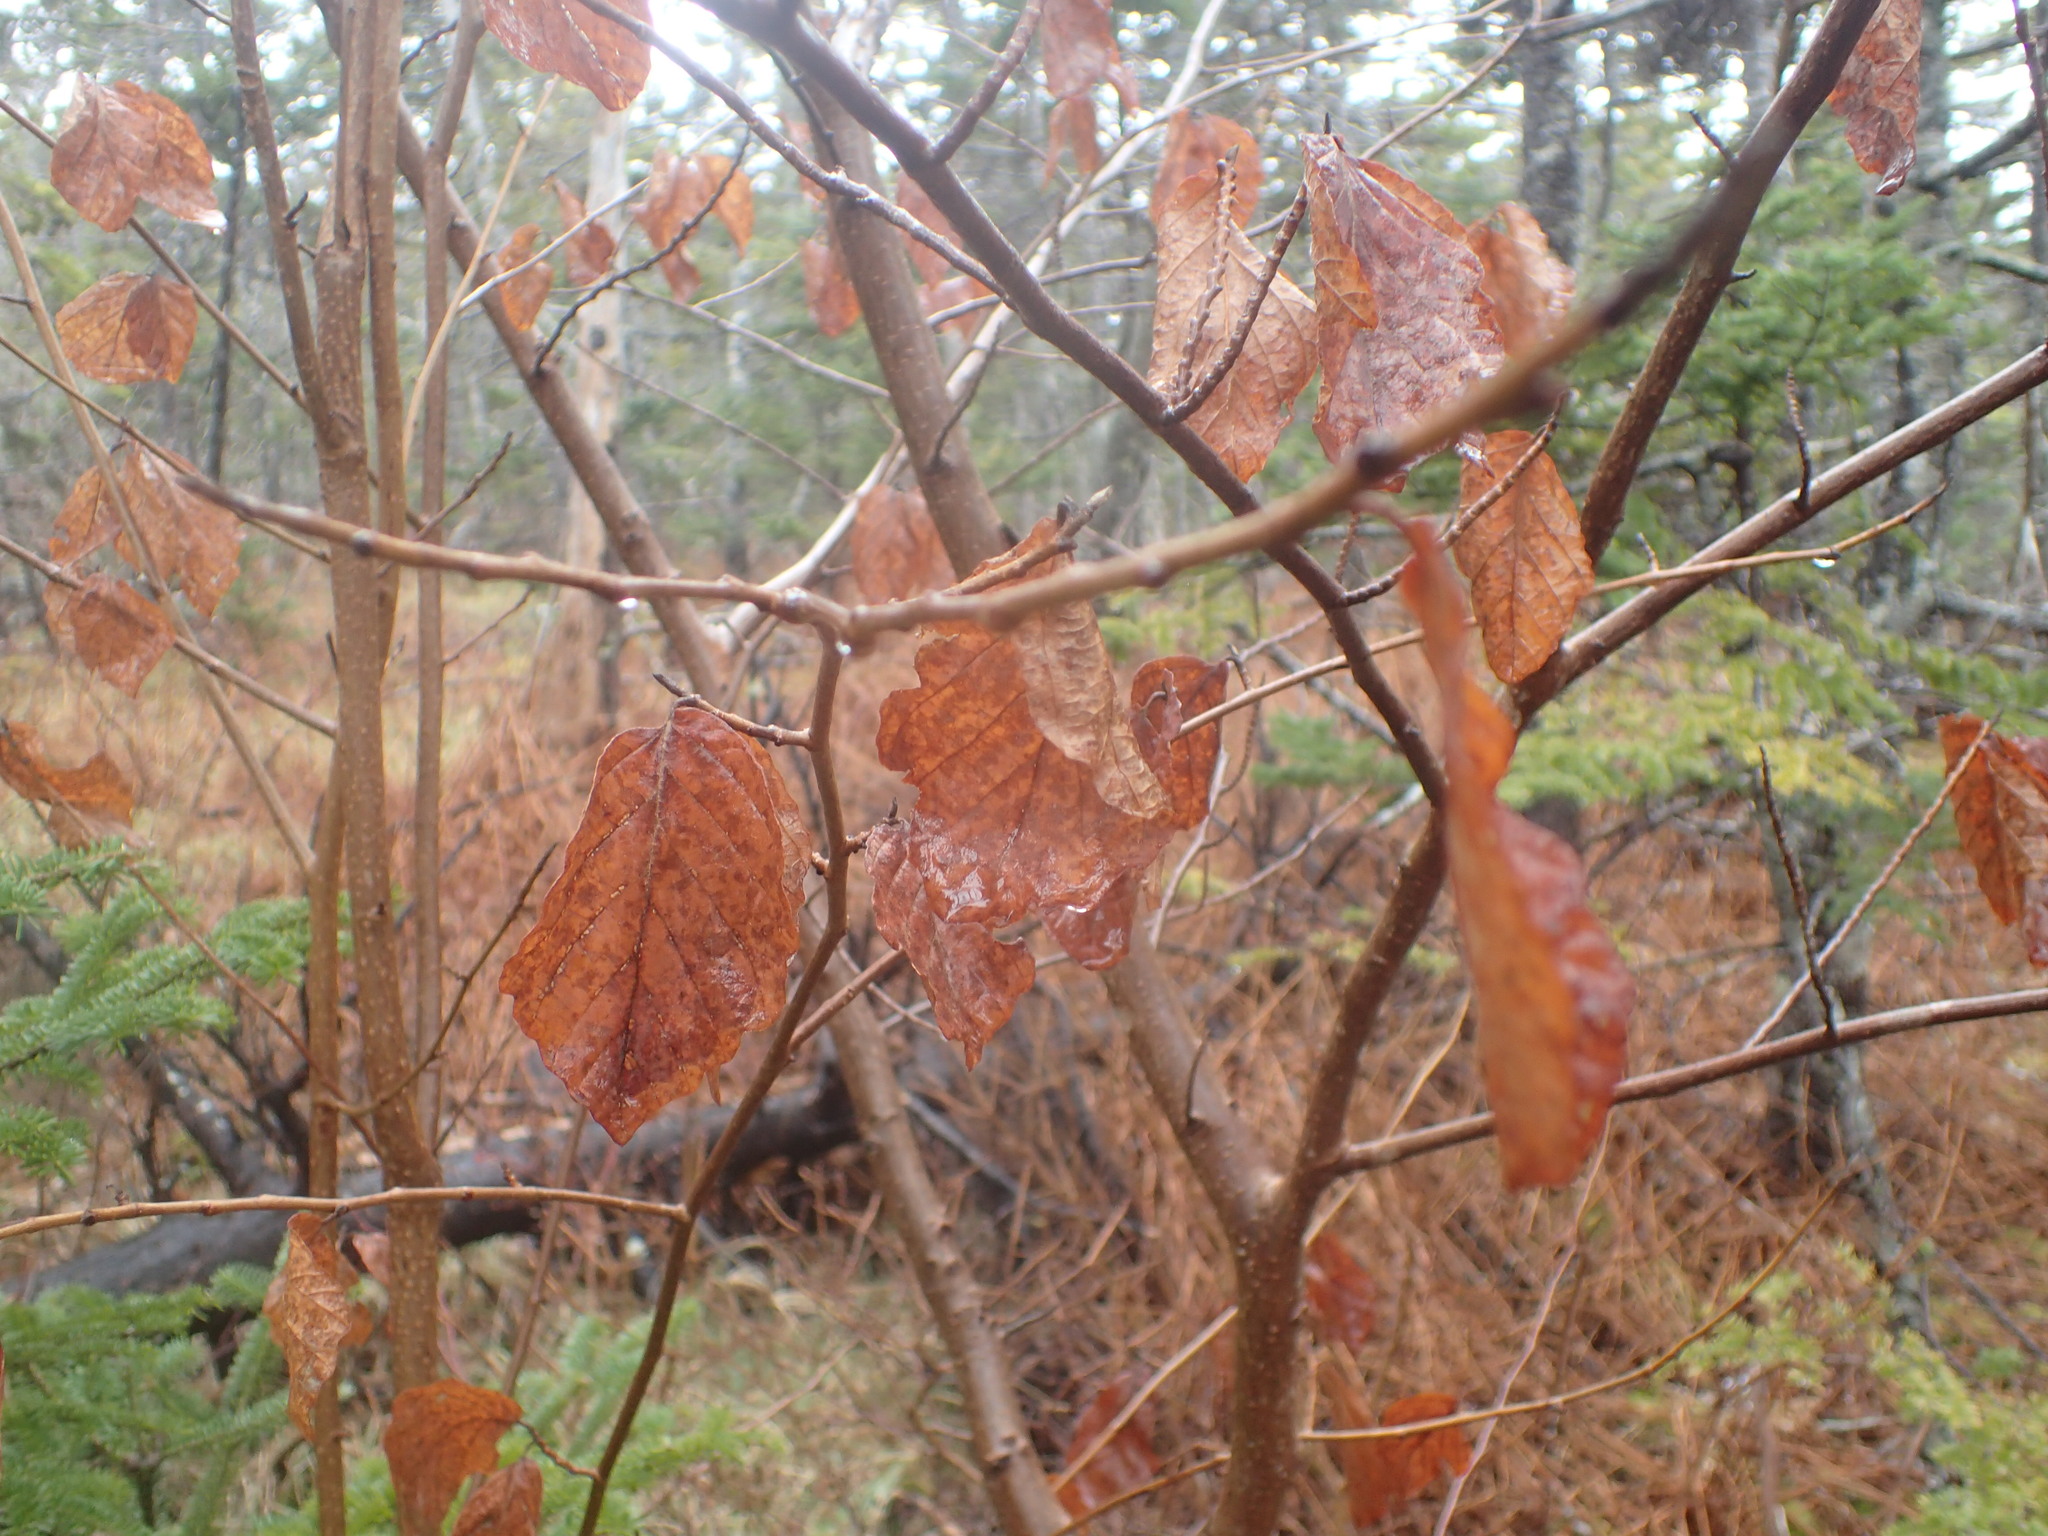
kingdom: Plantae
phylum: Tracheophyta
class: Magnoliopsida
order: Saxifragales
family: Hamamelidaceae
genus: Hamamelis
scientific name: Hamamelis virginiana
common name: Witch-hazel
